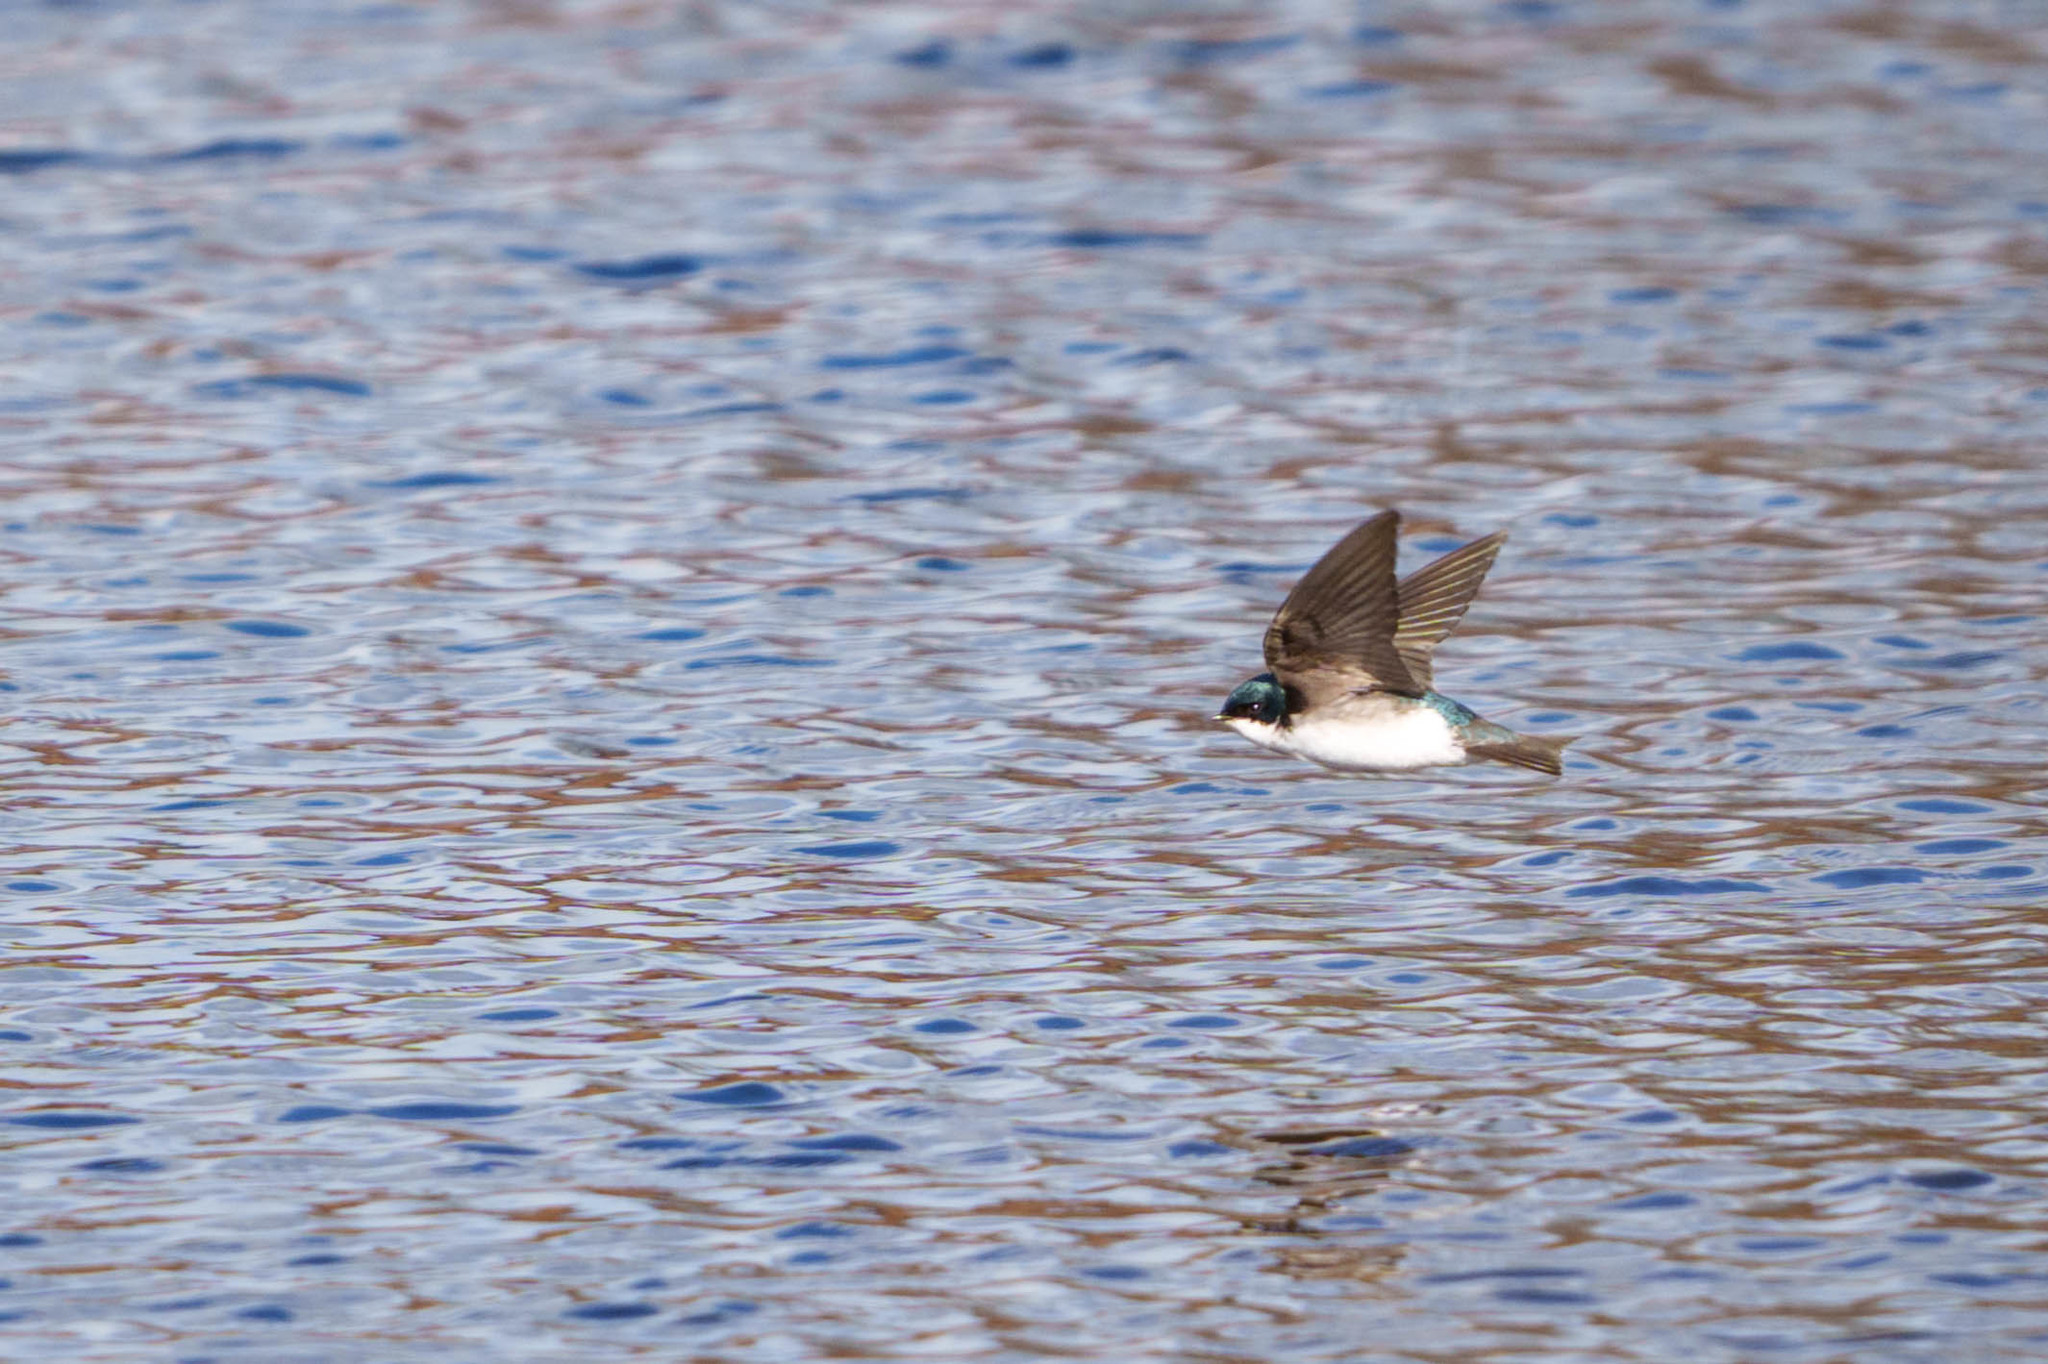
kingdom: Animalia
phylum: Chordata
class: Aves
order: Passeriformes
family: Hirundinidae
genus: Tachycineta
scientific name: Tachycineta bicolor
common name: Tree swallow
